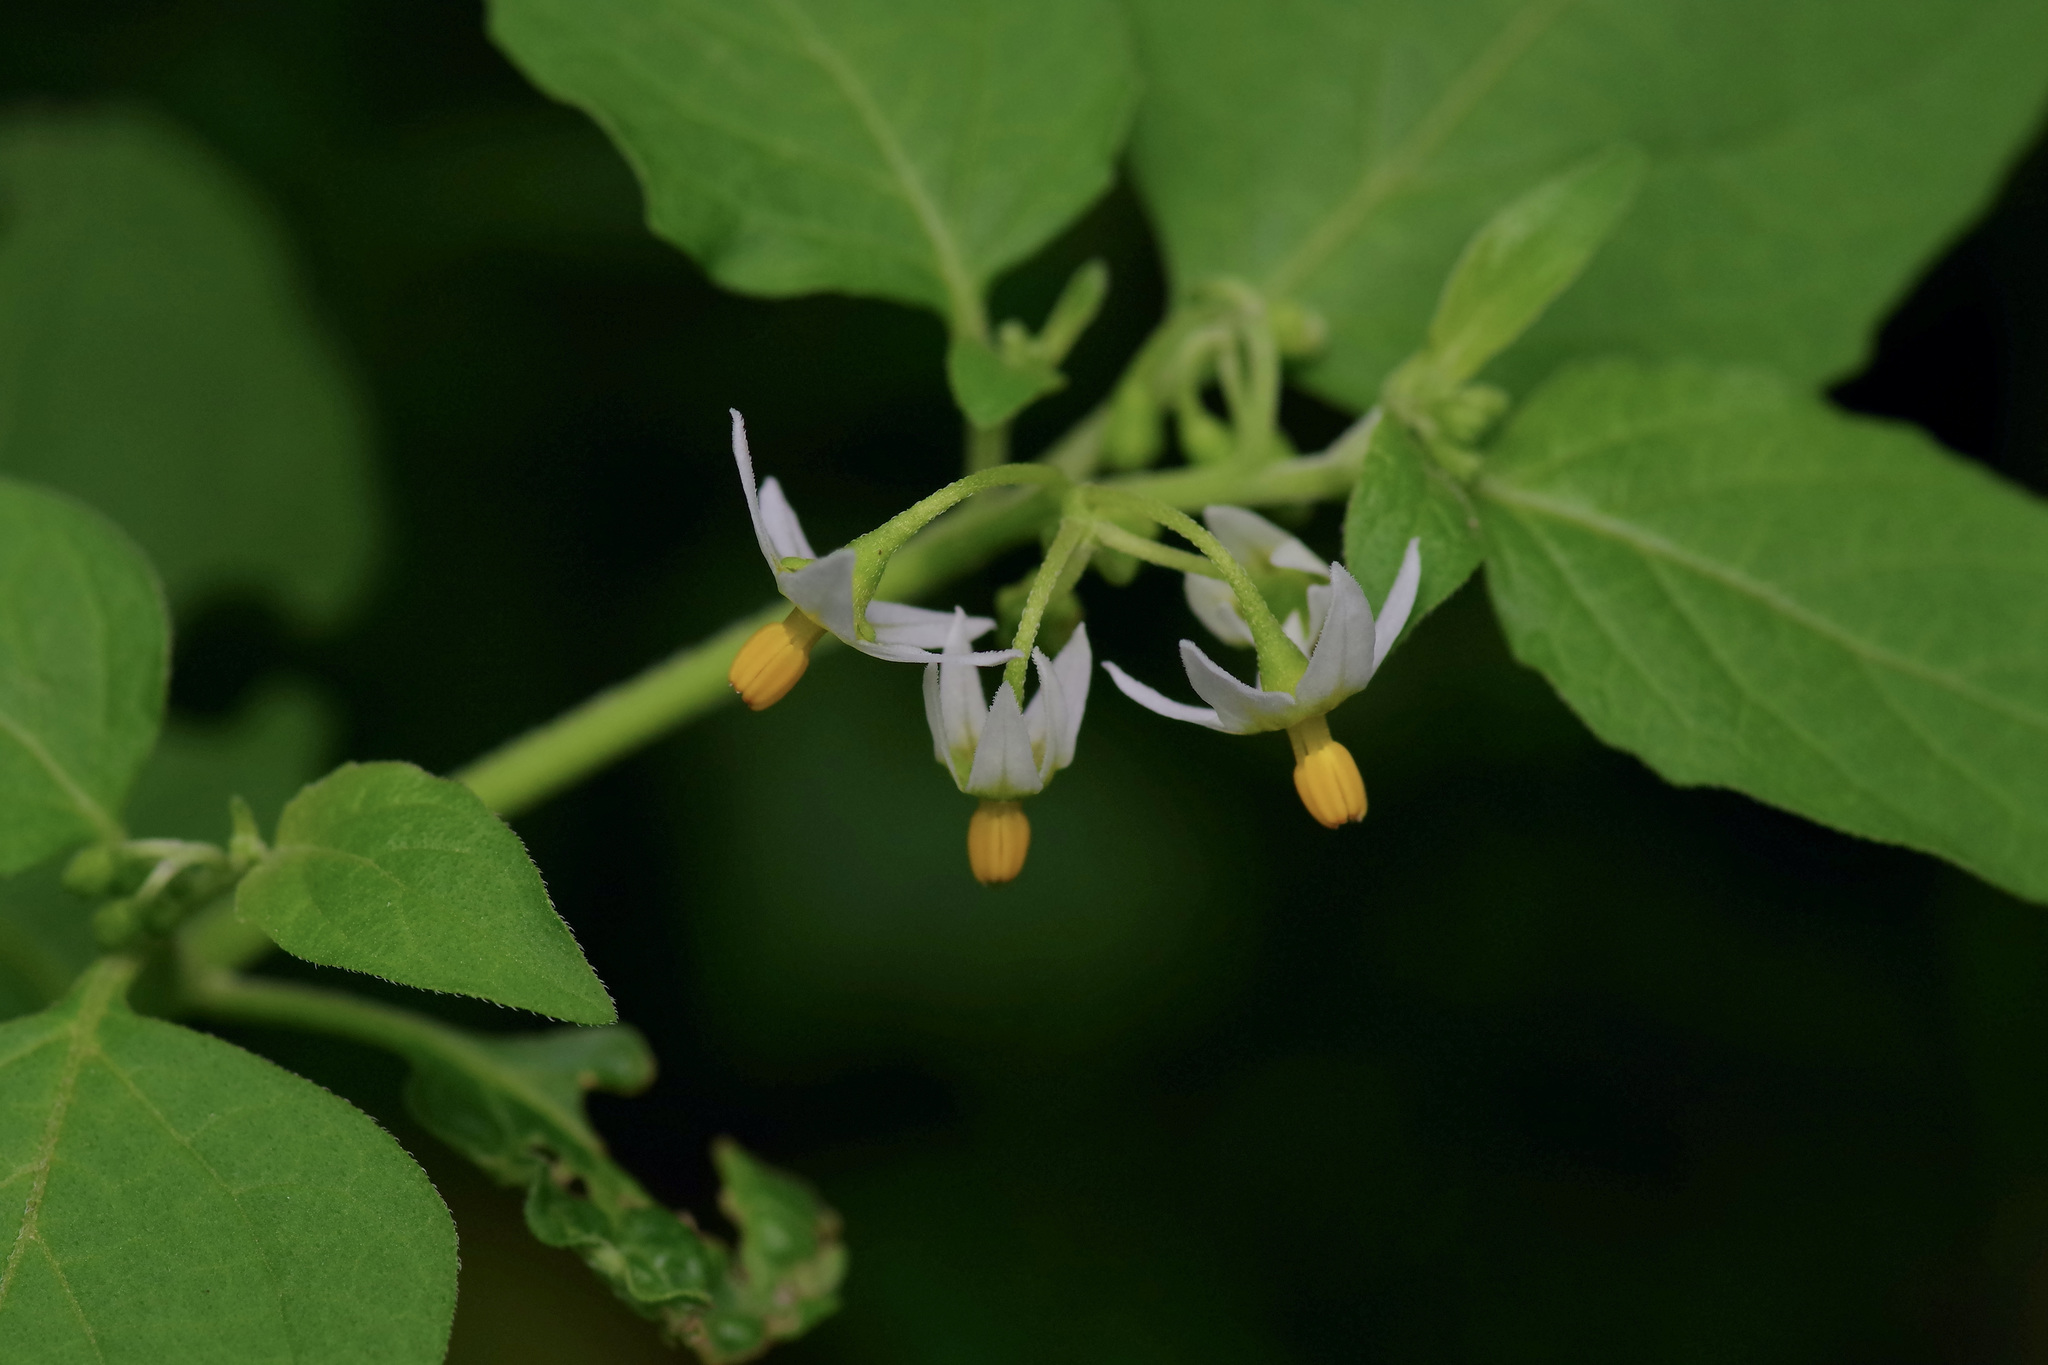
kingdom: Plantae
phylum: Tracheophyta
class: Magnoliopsida
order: Solanales
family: Solanaceae
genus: Solanum
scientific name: Solanum emulans
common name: Eastern black nightshade
